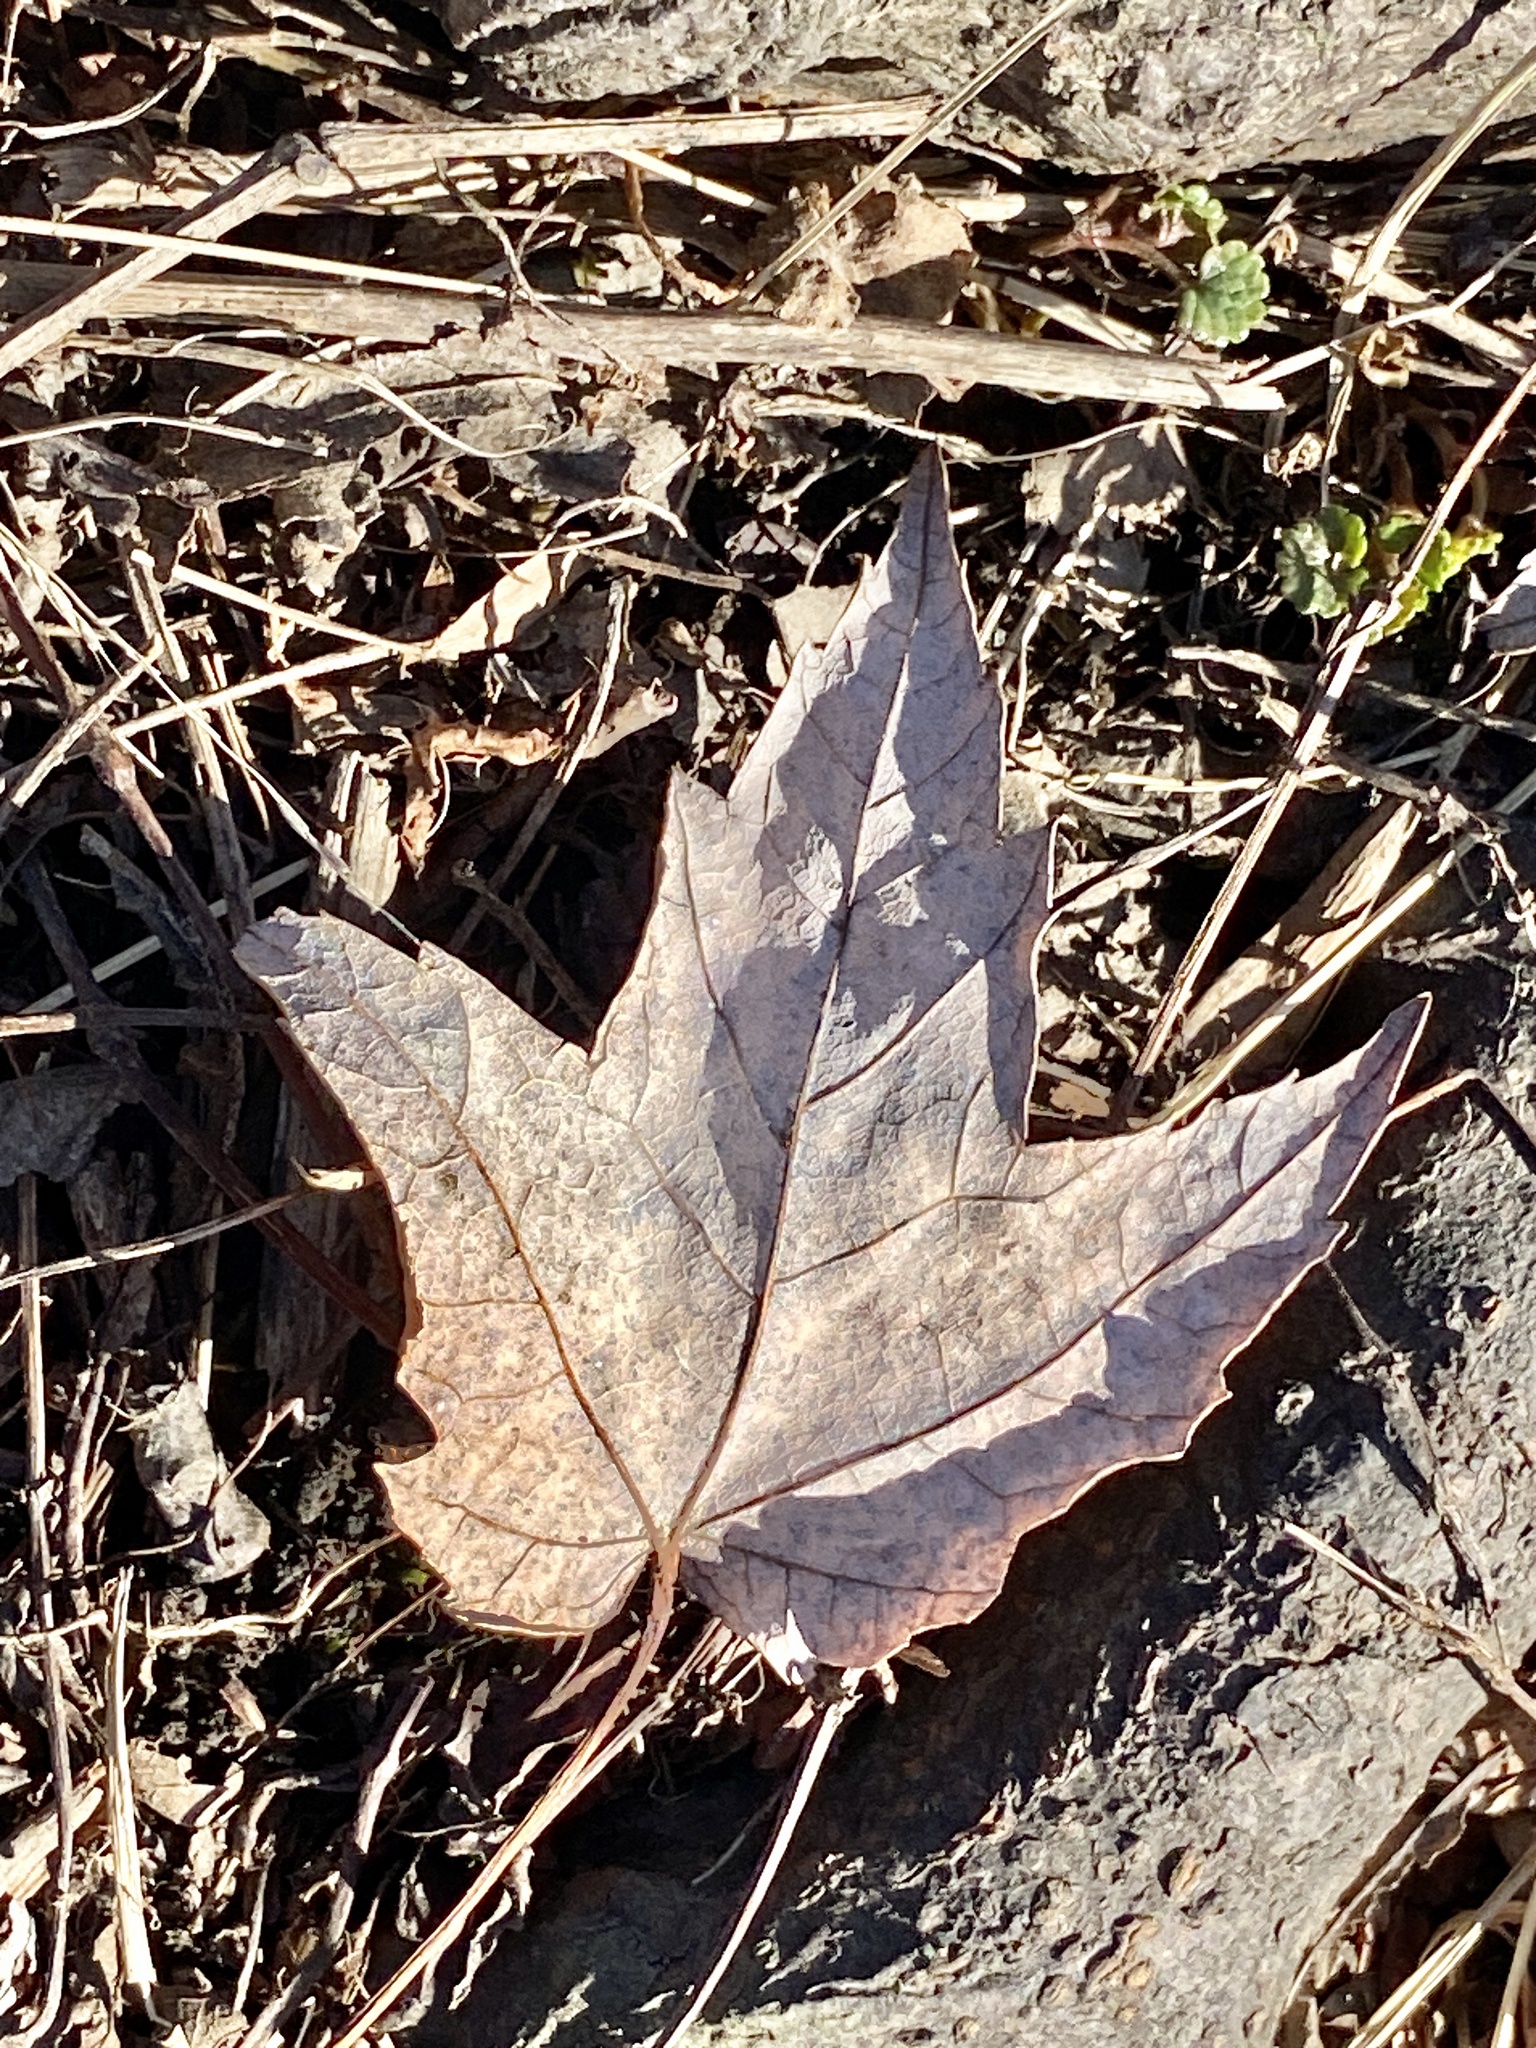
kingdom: Plantae
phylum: Tracheophyta
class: Magnoliopsida
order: Sapindales
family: Sapindaceae
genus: Acer
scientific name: Acer rubrum
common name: Red maple
